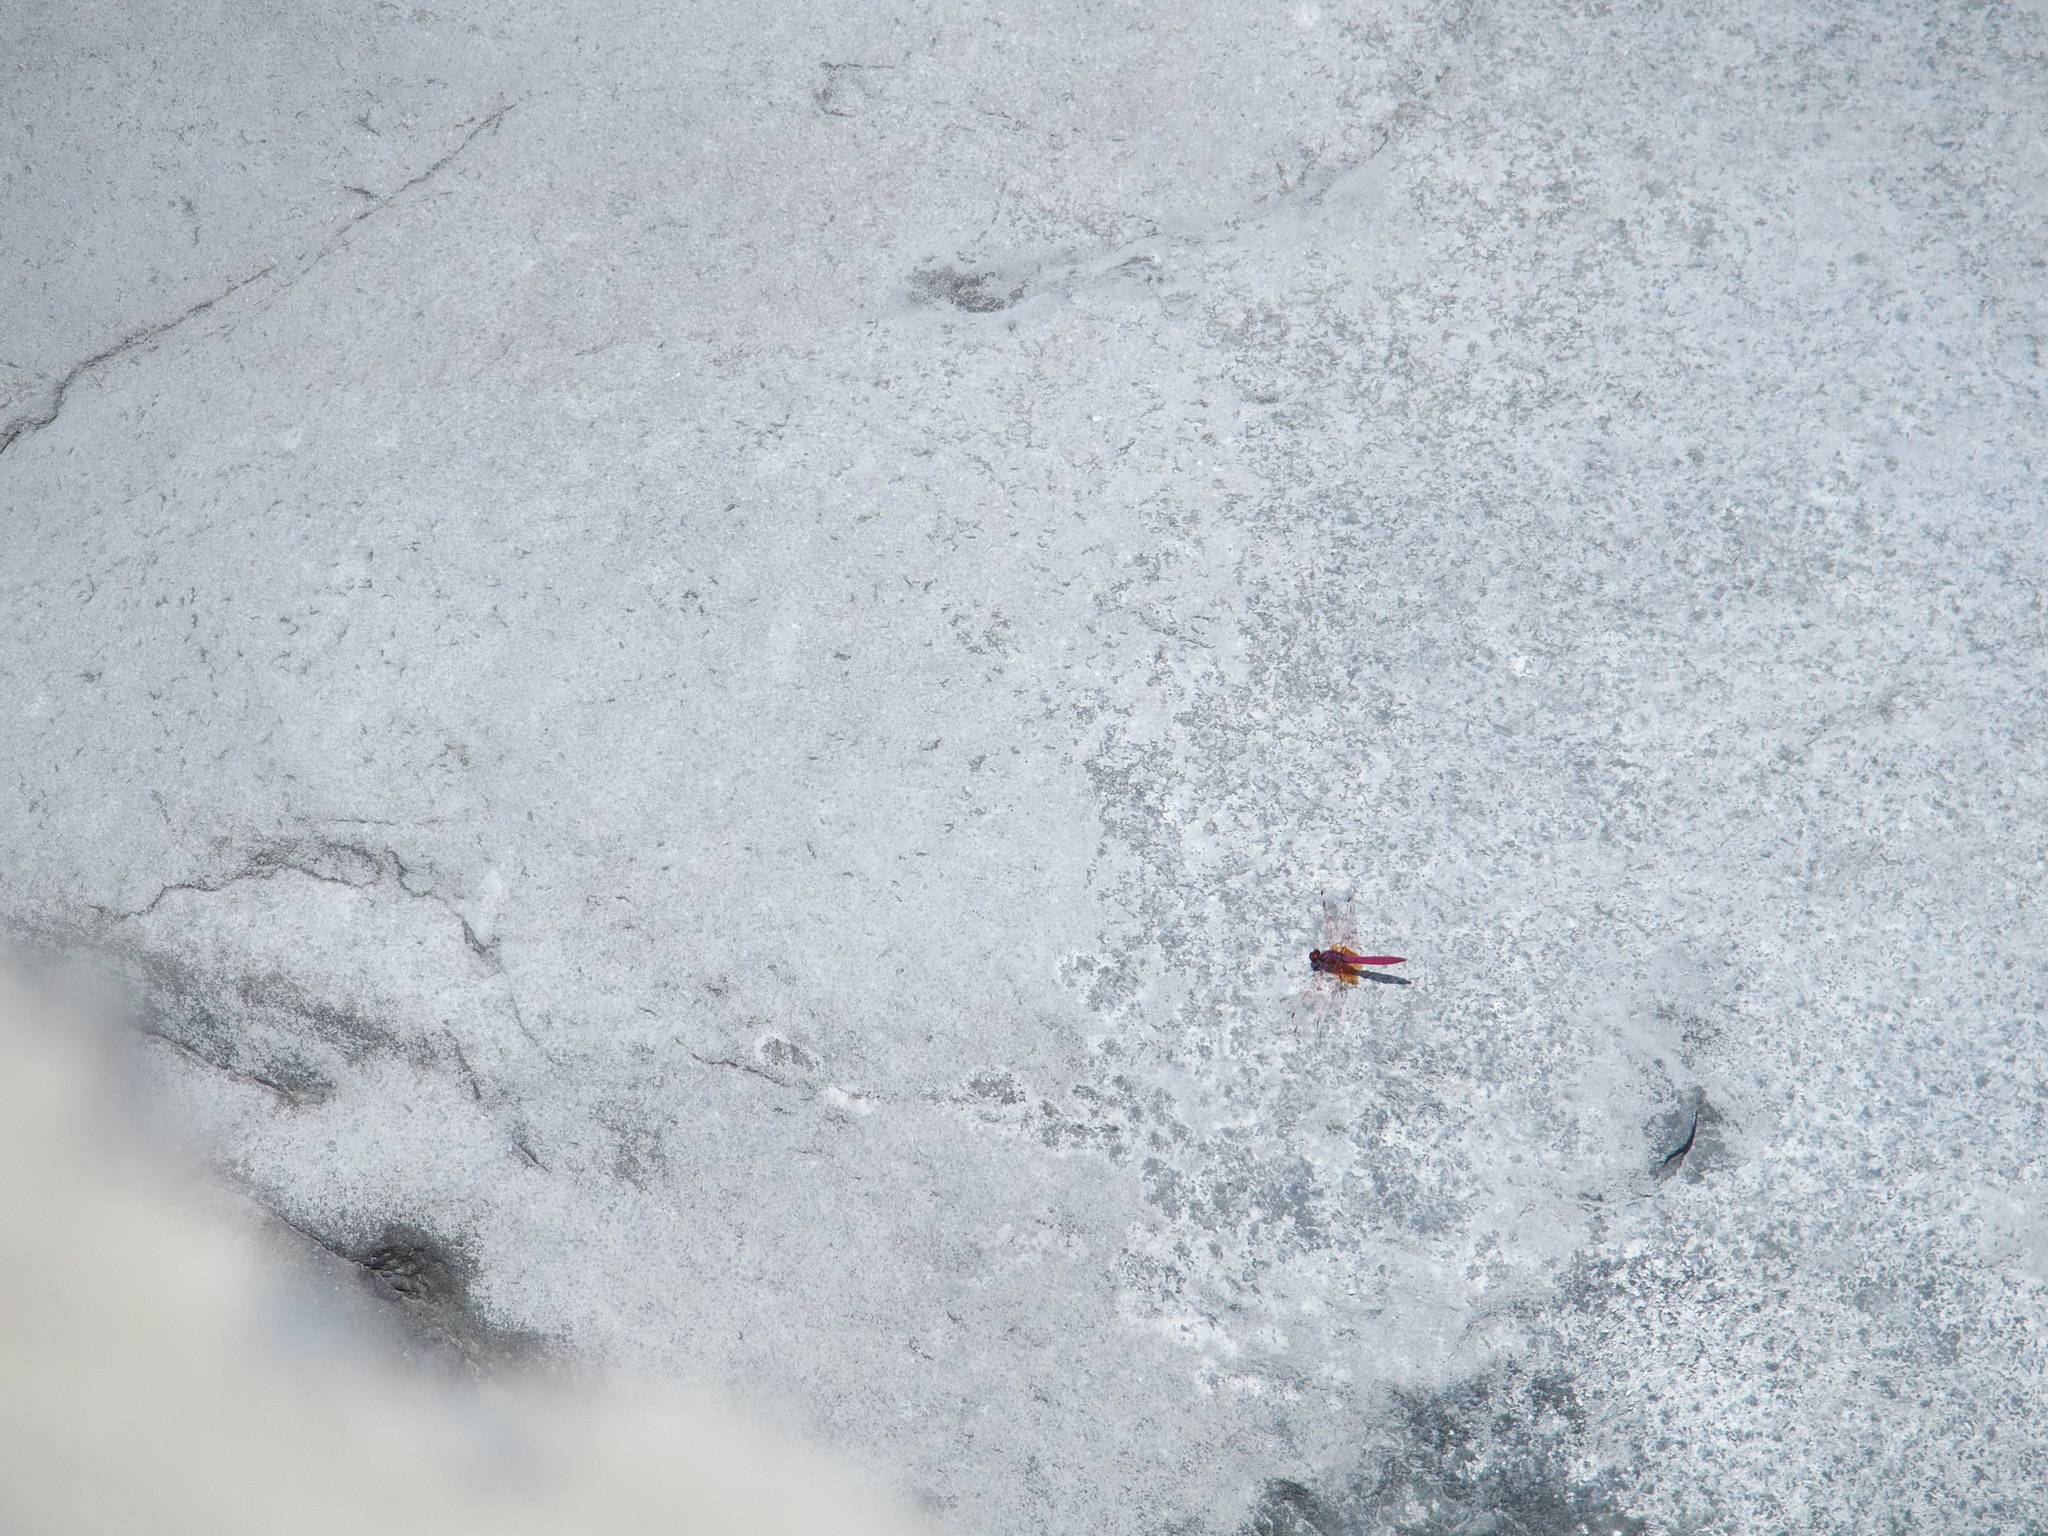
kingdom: Animalia
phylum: Arthropoda
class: Insecta
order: Odonata
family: Libellulidae
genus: Trithemis
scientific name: Trithemis aurora
